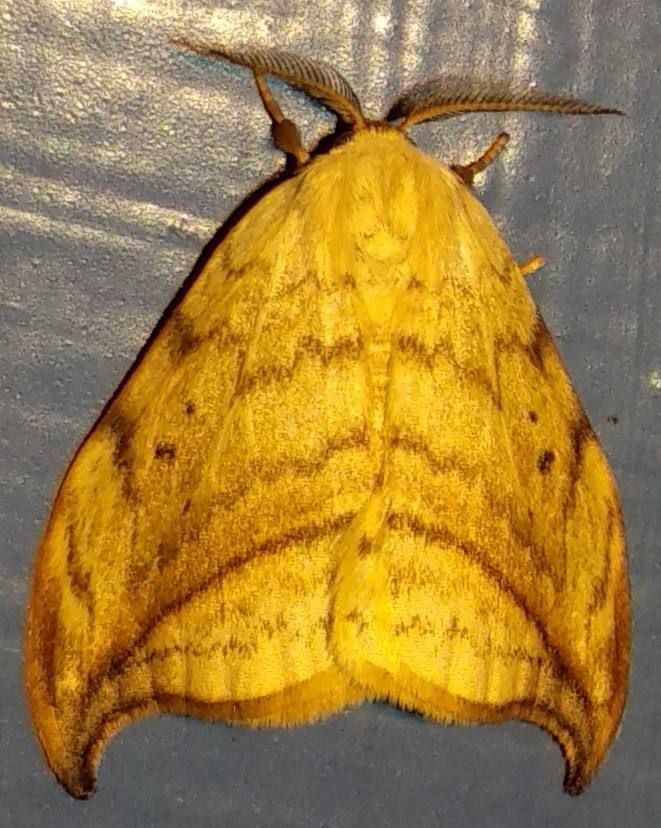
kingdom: Animalia
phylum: Arthropoda
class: Insecta
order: Lepidoptera
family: Drepanidae
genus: Drepana
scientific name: Drepana arcuata
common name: Arched hooktip moth
